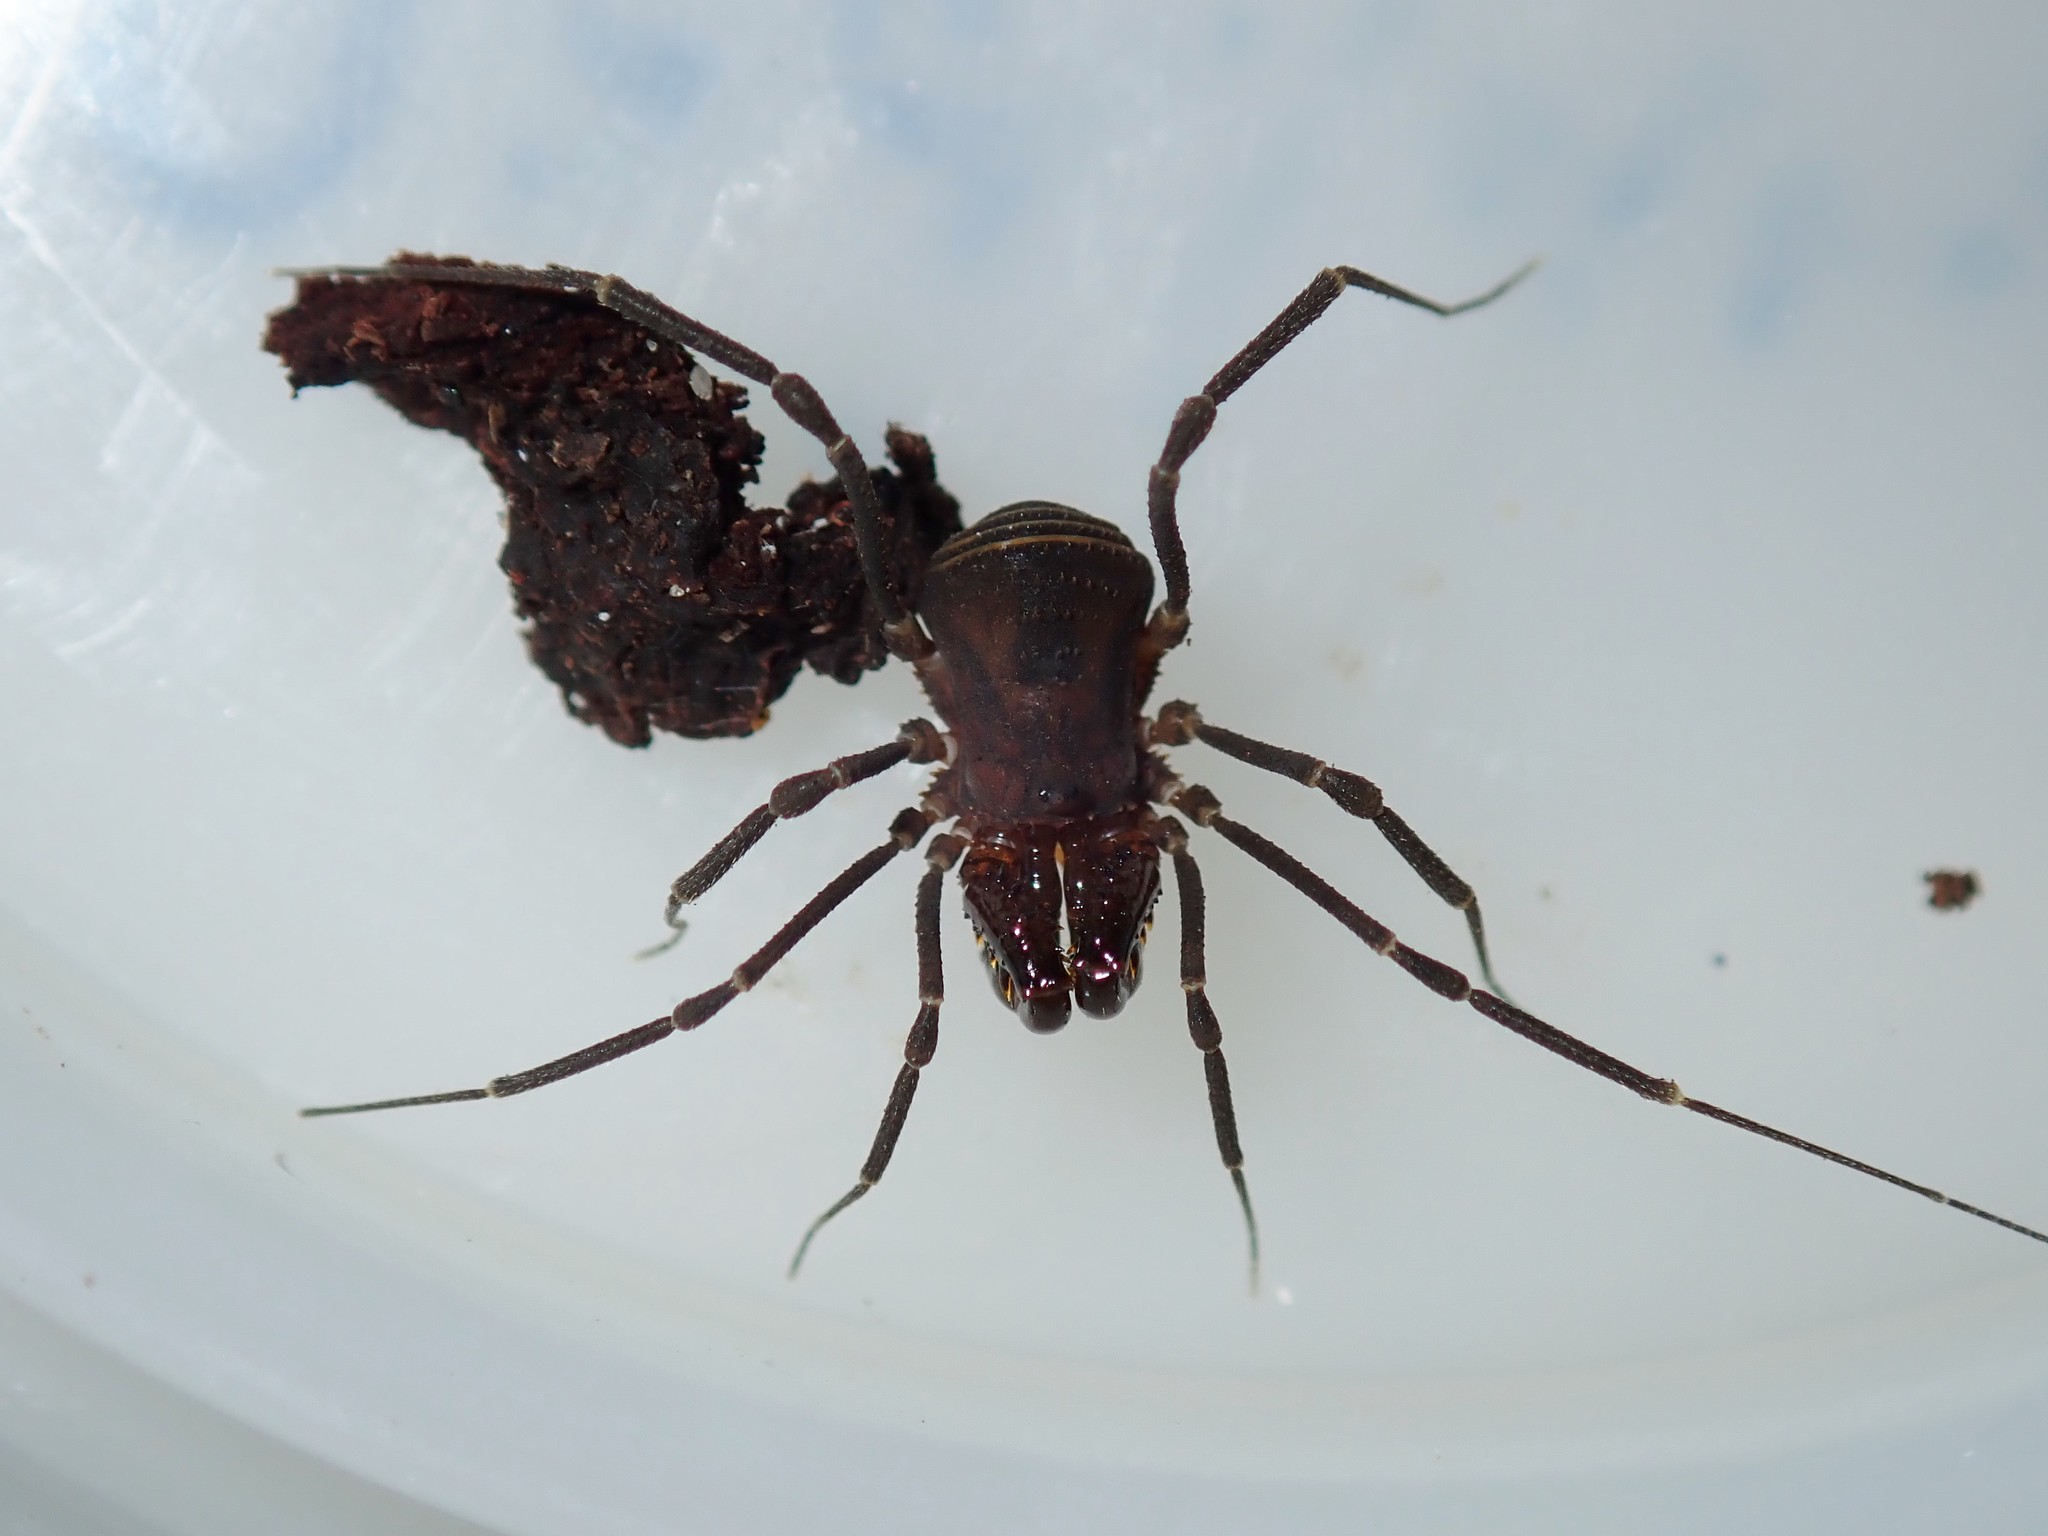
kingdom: Animalia
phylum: Arthropoda
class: Arachnida
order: Opiliones
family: Triaenonychidae
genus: Holonuncia
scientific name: Holonuncia francesae
